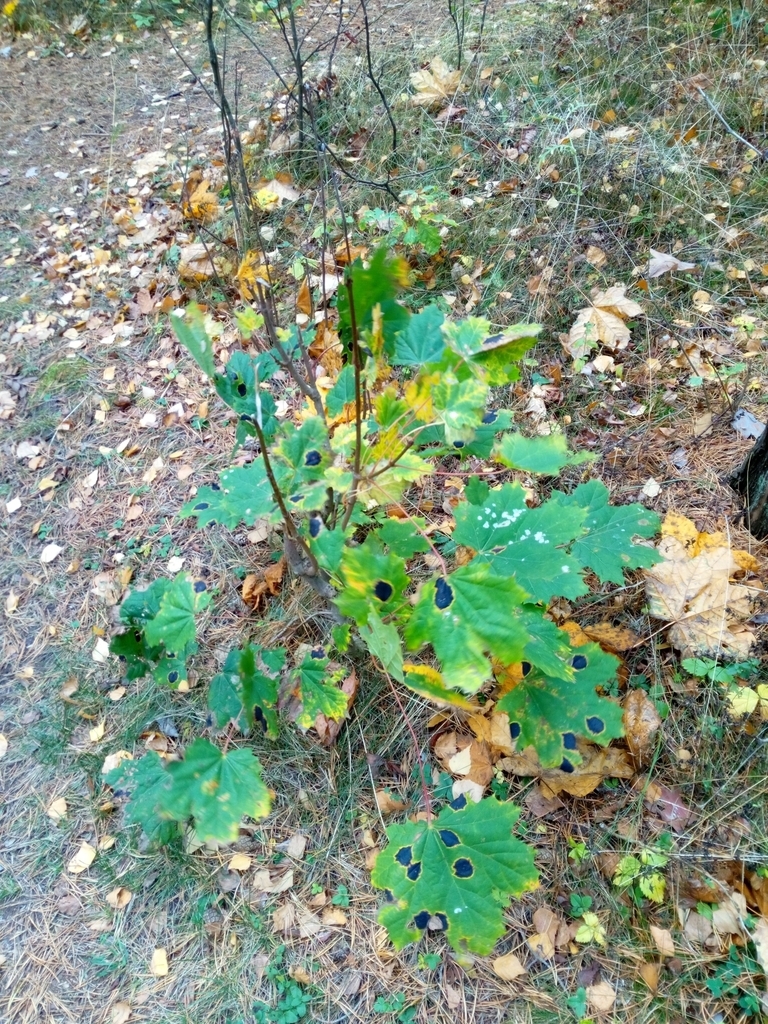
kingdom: Fungi
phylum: Ascomycota
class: Leotiomycetes
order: Rhytismatales
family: Rhytismataceae
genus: Rhytisma
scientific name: Rhytisma acerinum
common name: European tar spot
